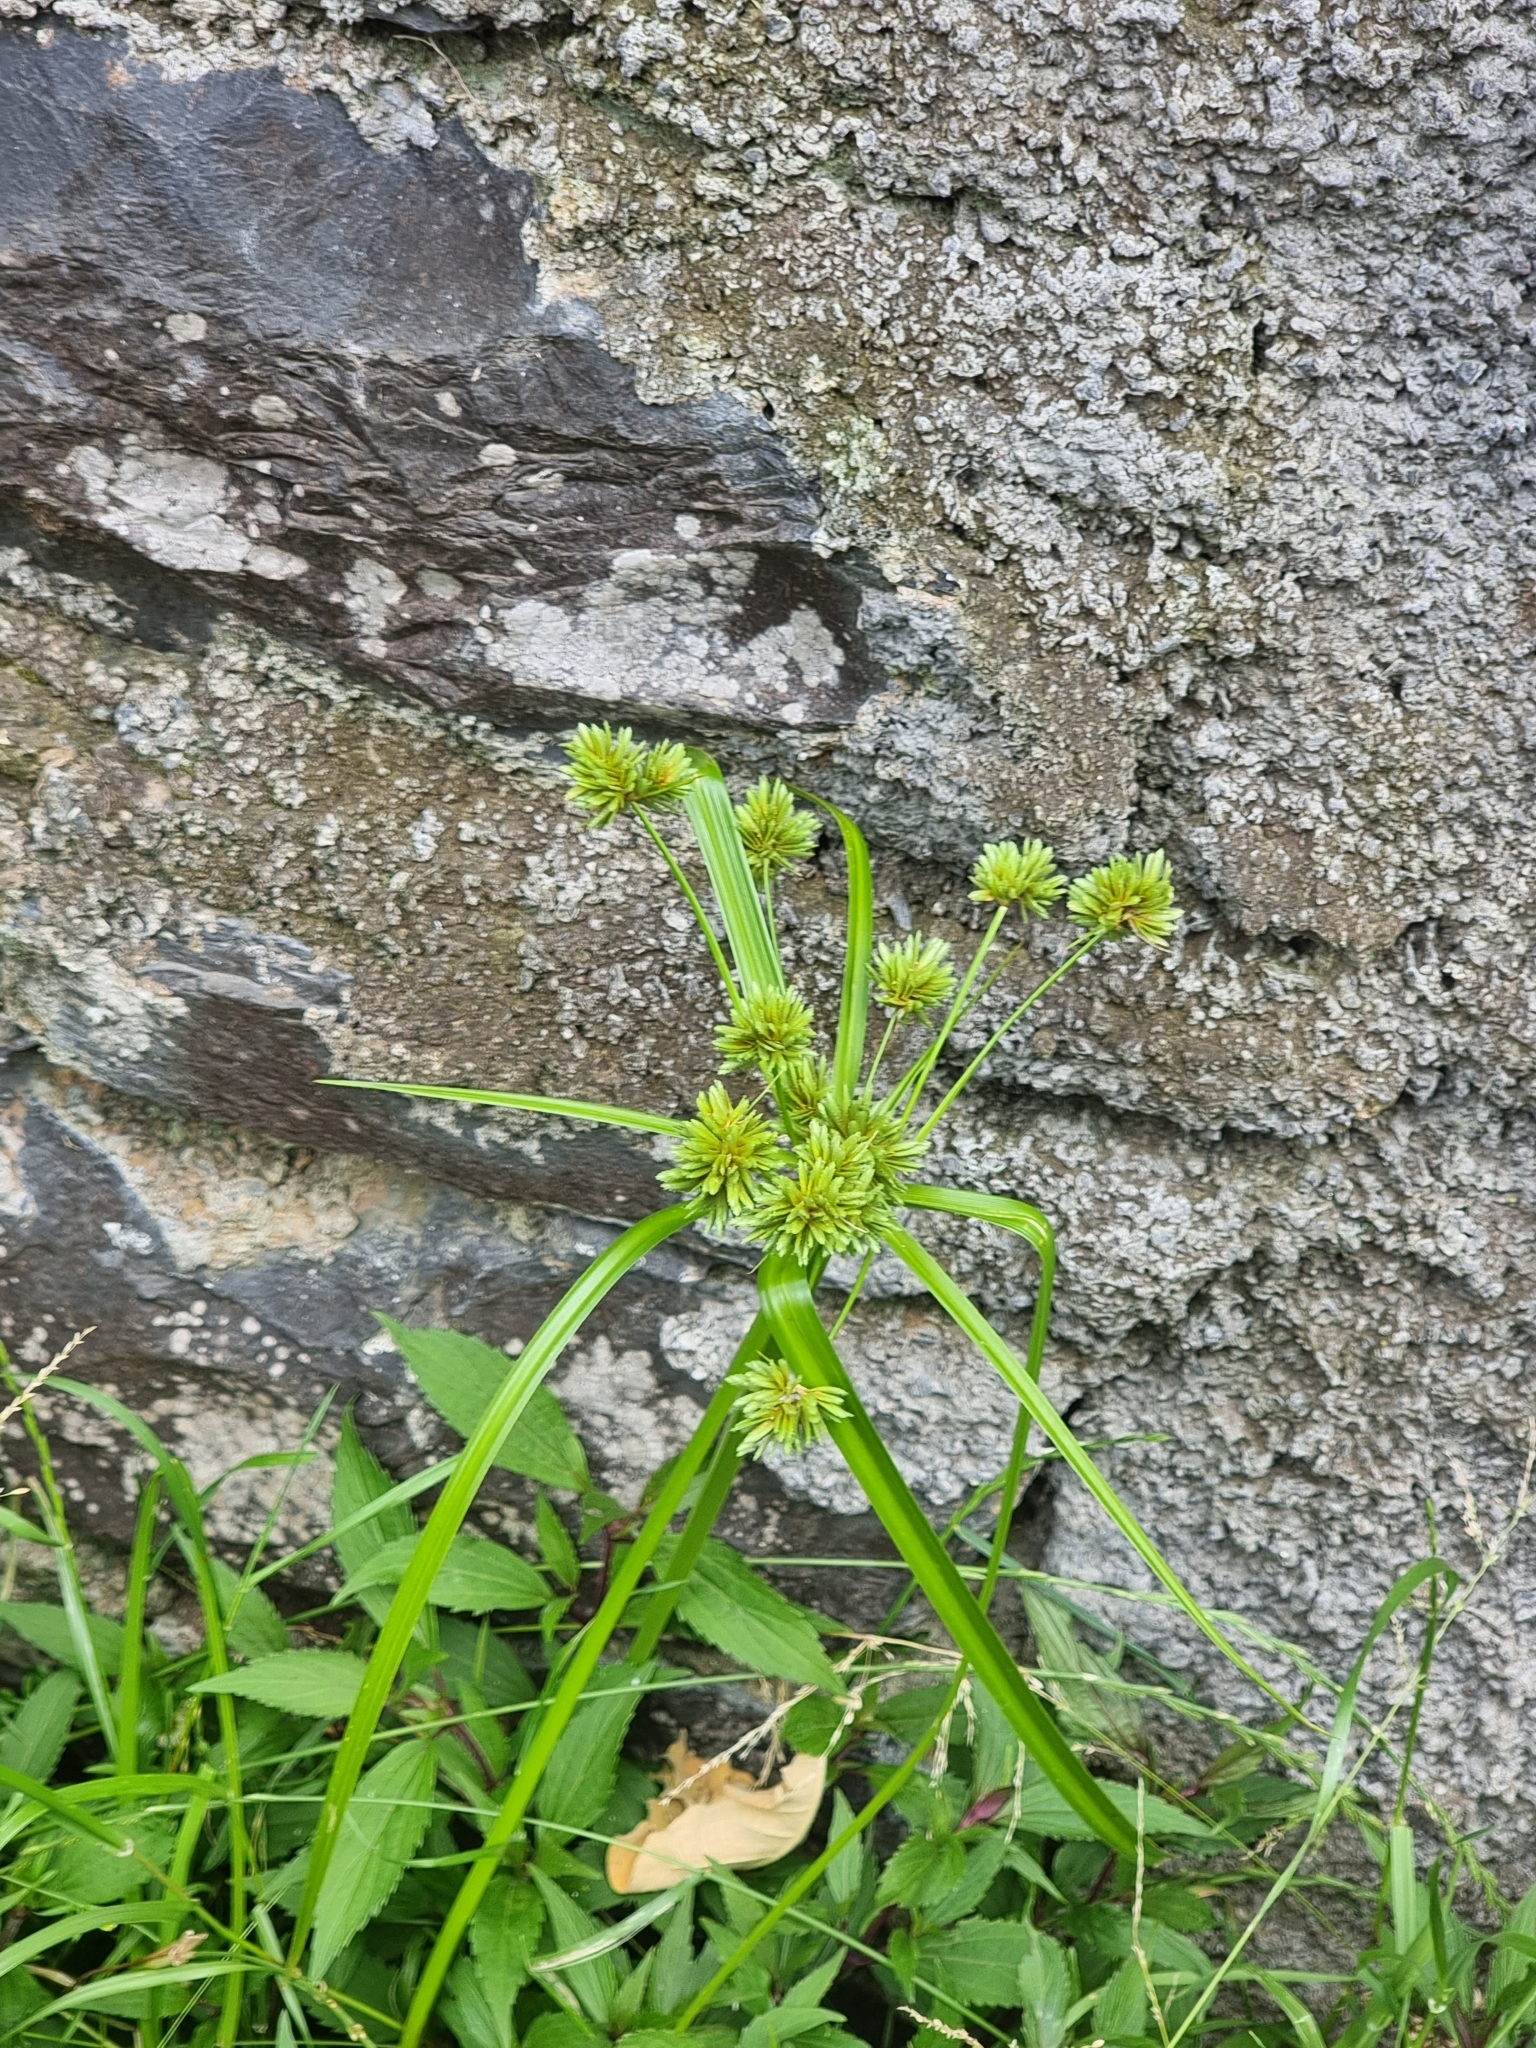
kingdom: Plantae
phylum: Tracheophyta
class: Liliopsida
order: Poales
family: Cyperaceae
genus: Cyperus
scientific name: Cyperus eragrostis
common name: Tall flatsedge
